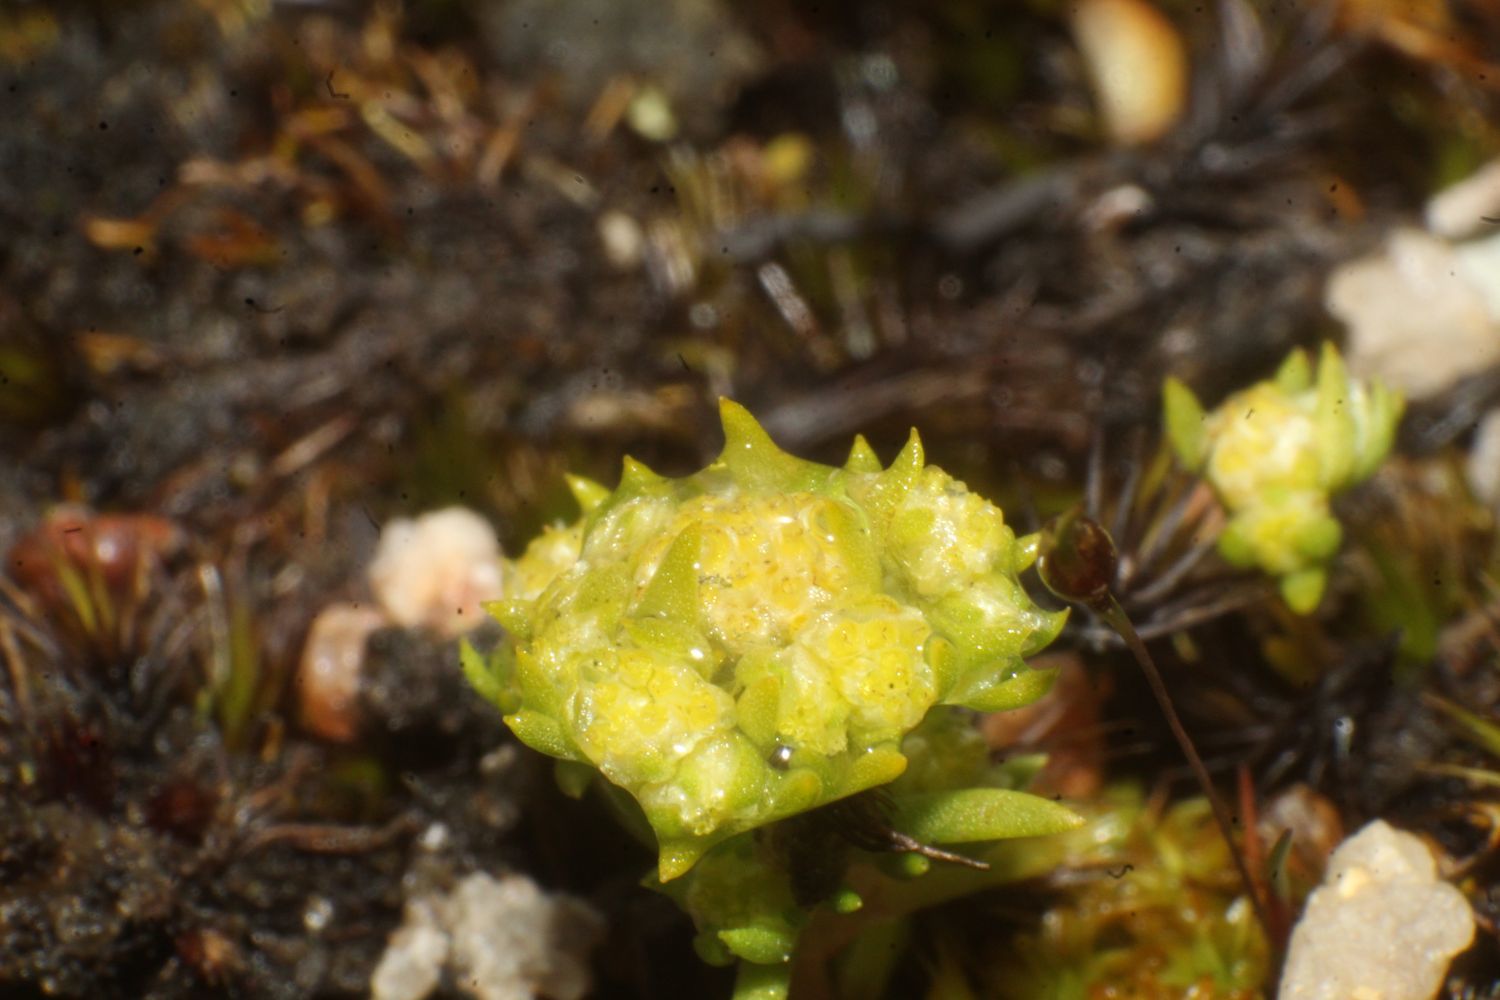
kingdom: Plantae
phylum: Tracheophyta
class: Magnoliopsida
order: Asterales
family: Asteraceae
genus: Siloxerus
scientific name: Siloxerus multiflorus
